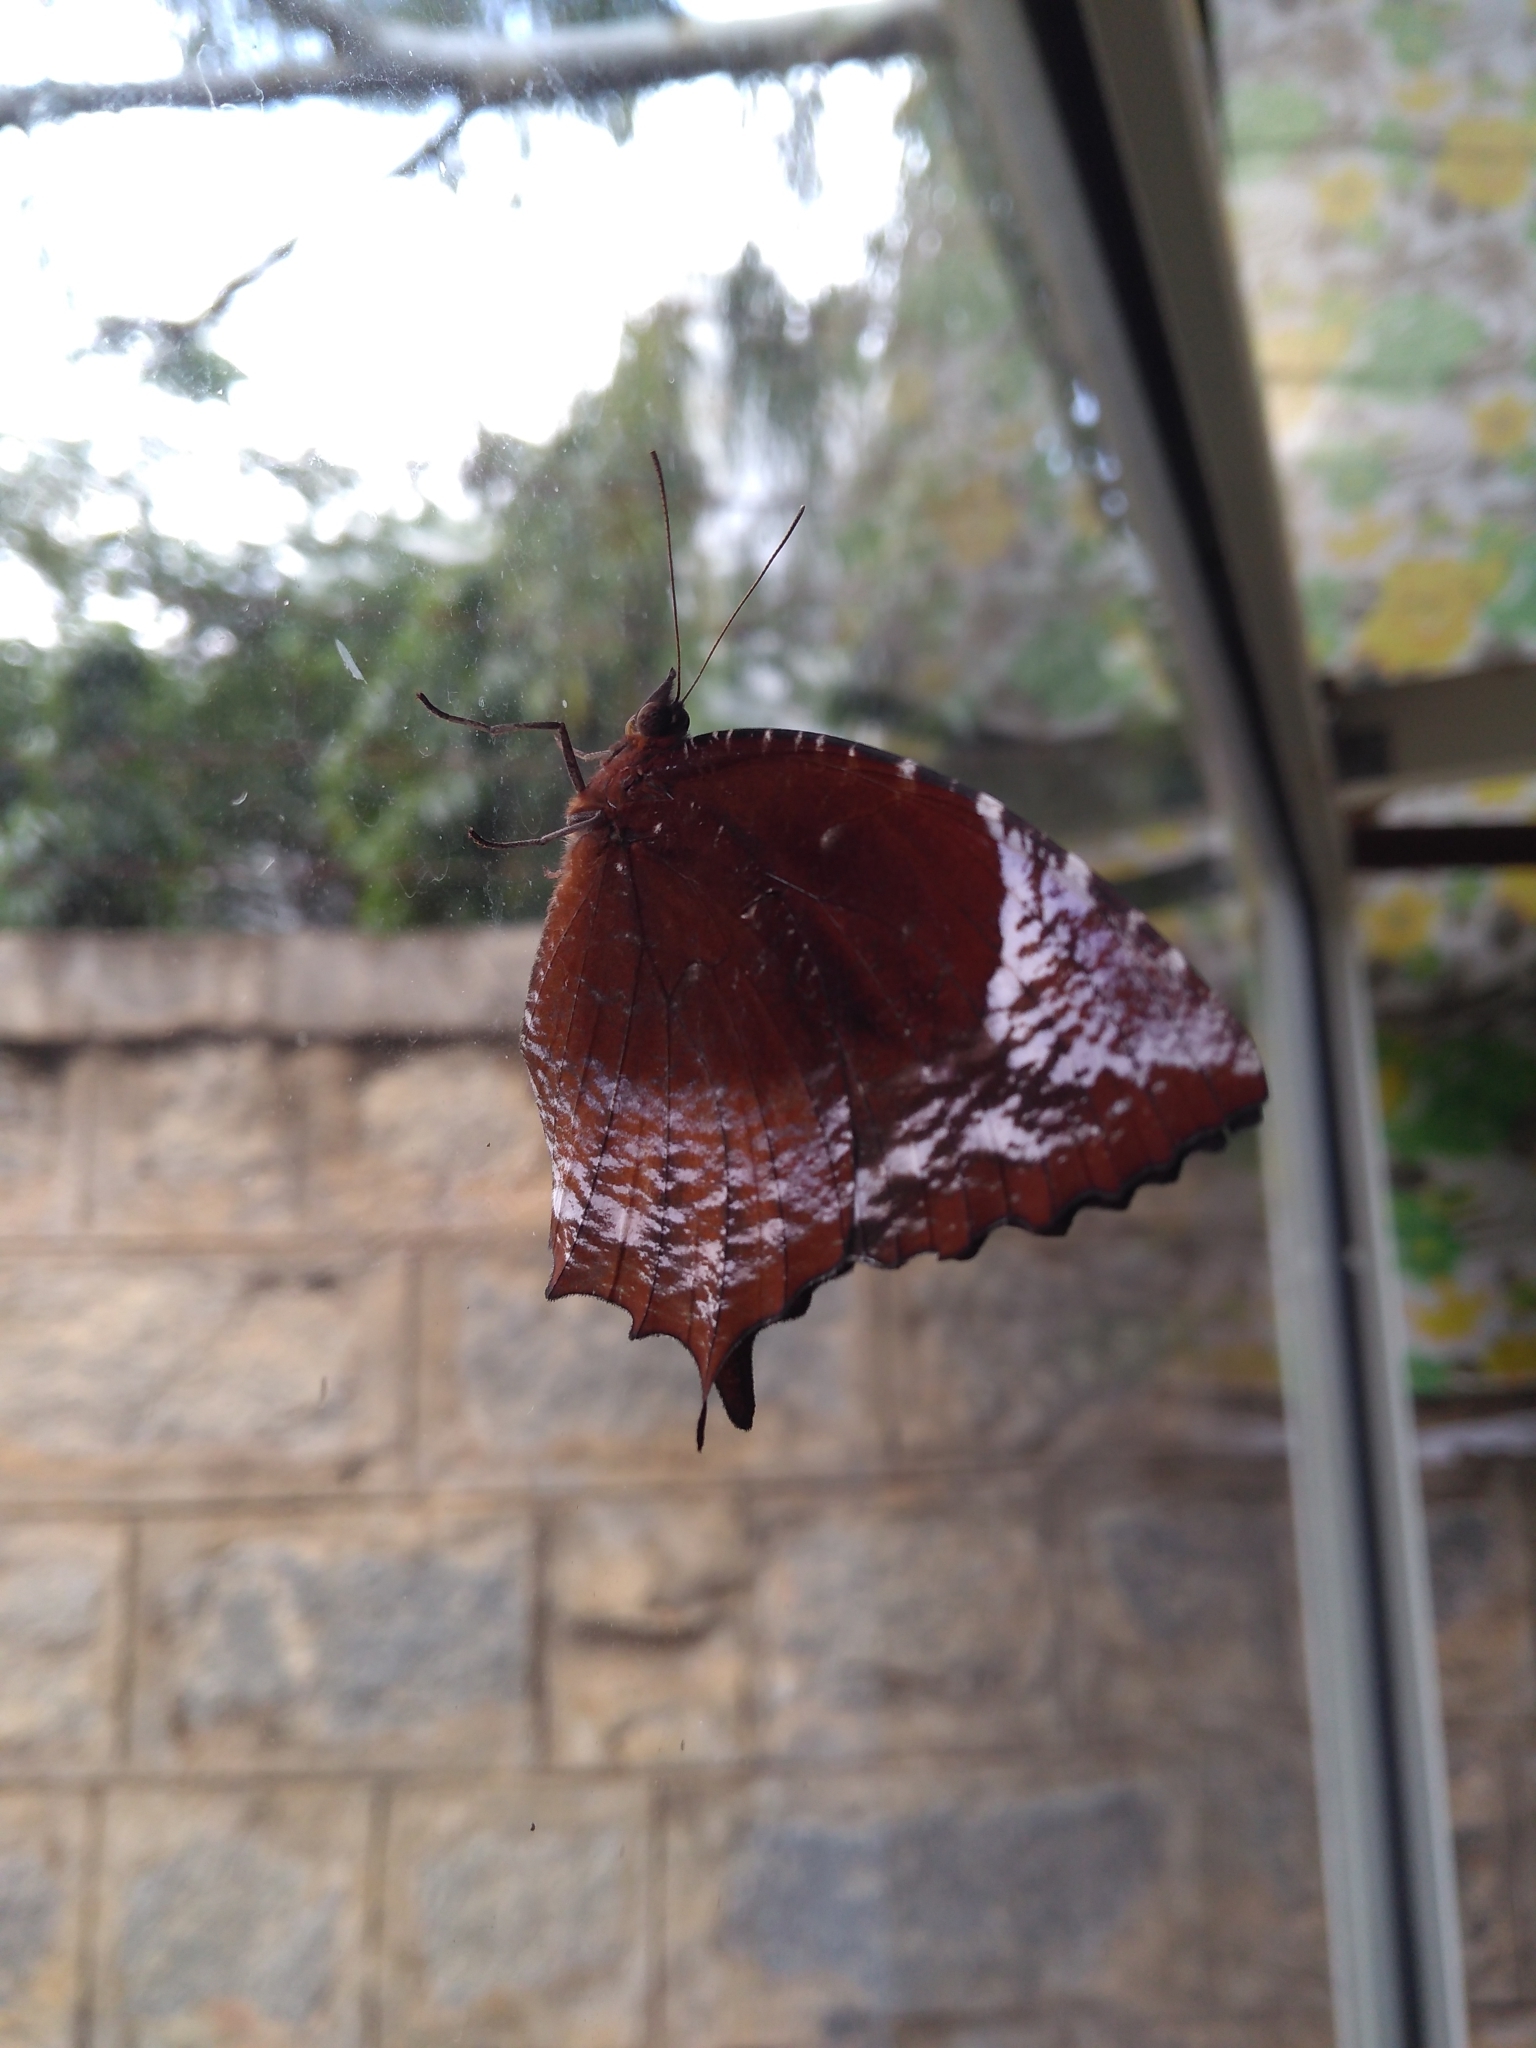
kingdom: Animalia
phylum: Arthropoda
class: Insecta
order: Lepidoptera
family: Nymphalidae
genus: Elymnias
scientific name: Elymnias caudata
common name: Tailed palmfly
